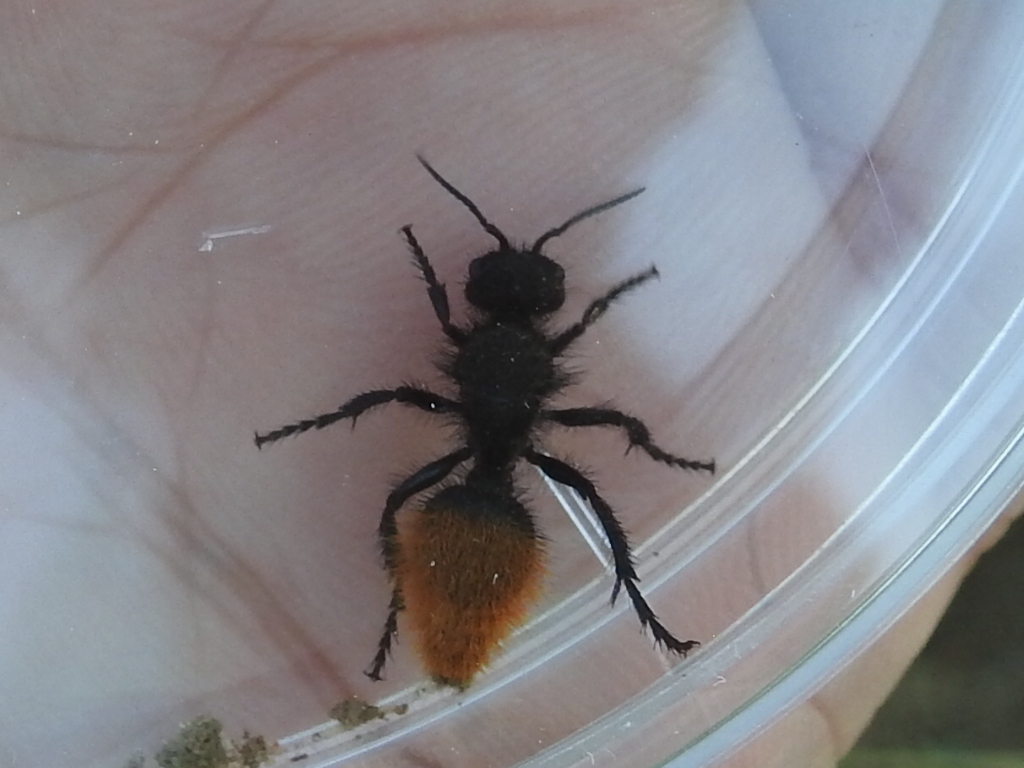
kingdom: Animalia
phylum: Arthropoda
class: Insecta
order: Hymenoptera
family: Mutillidae
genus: Dasymutilla
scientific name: Dasymutilla gorgon
